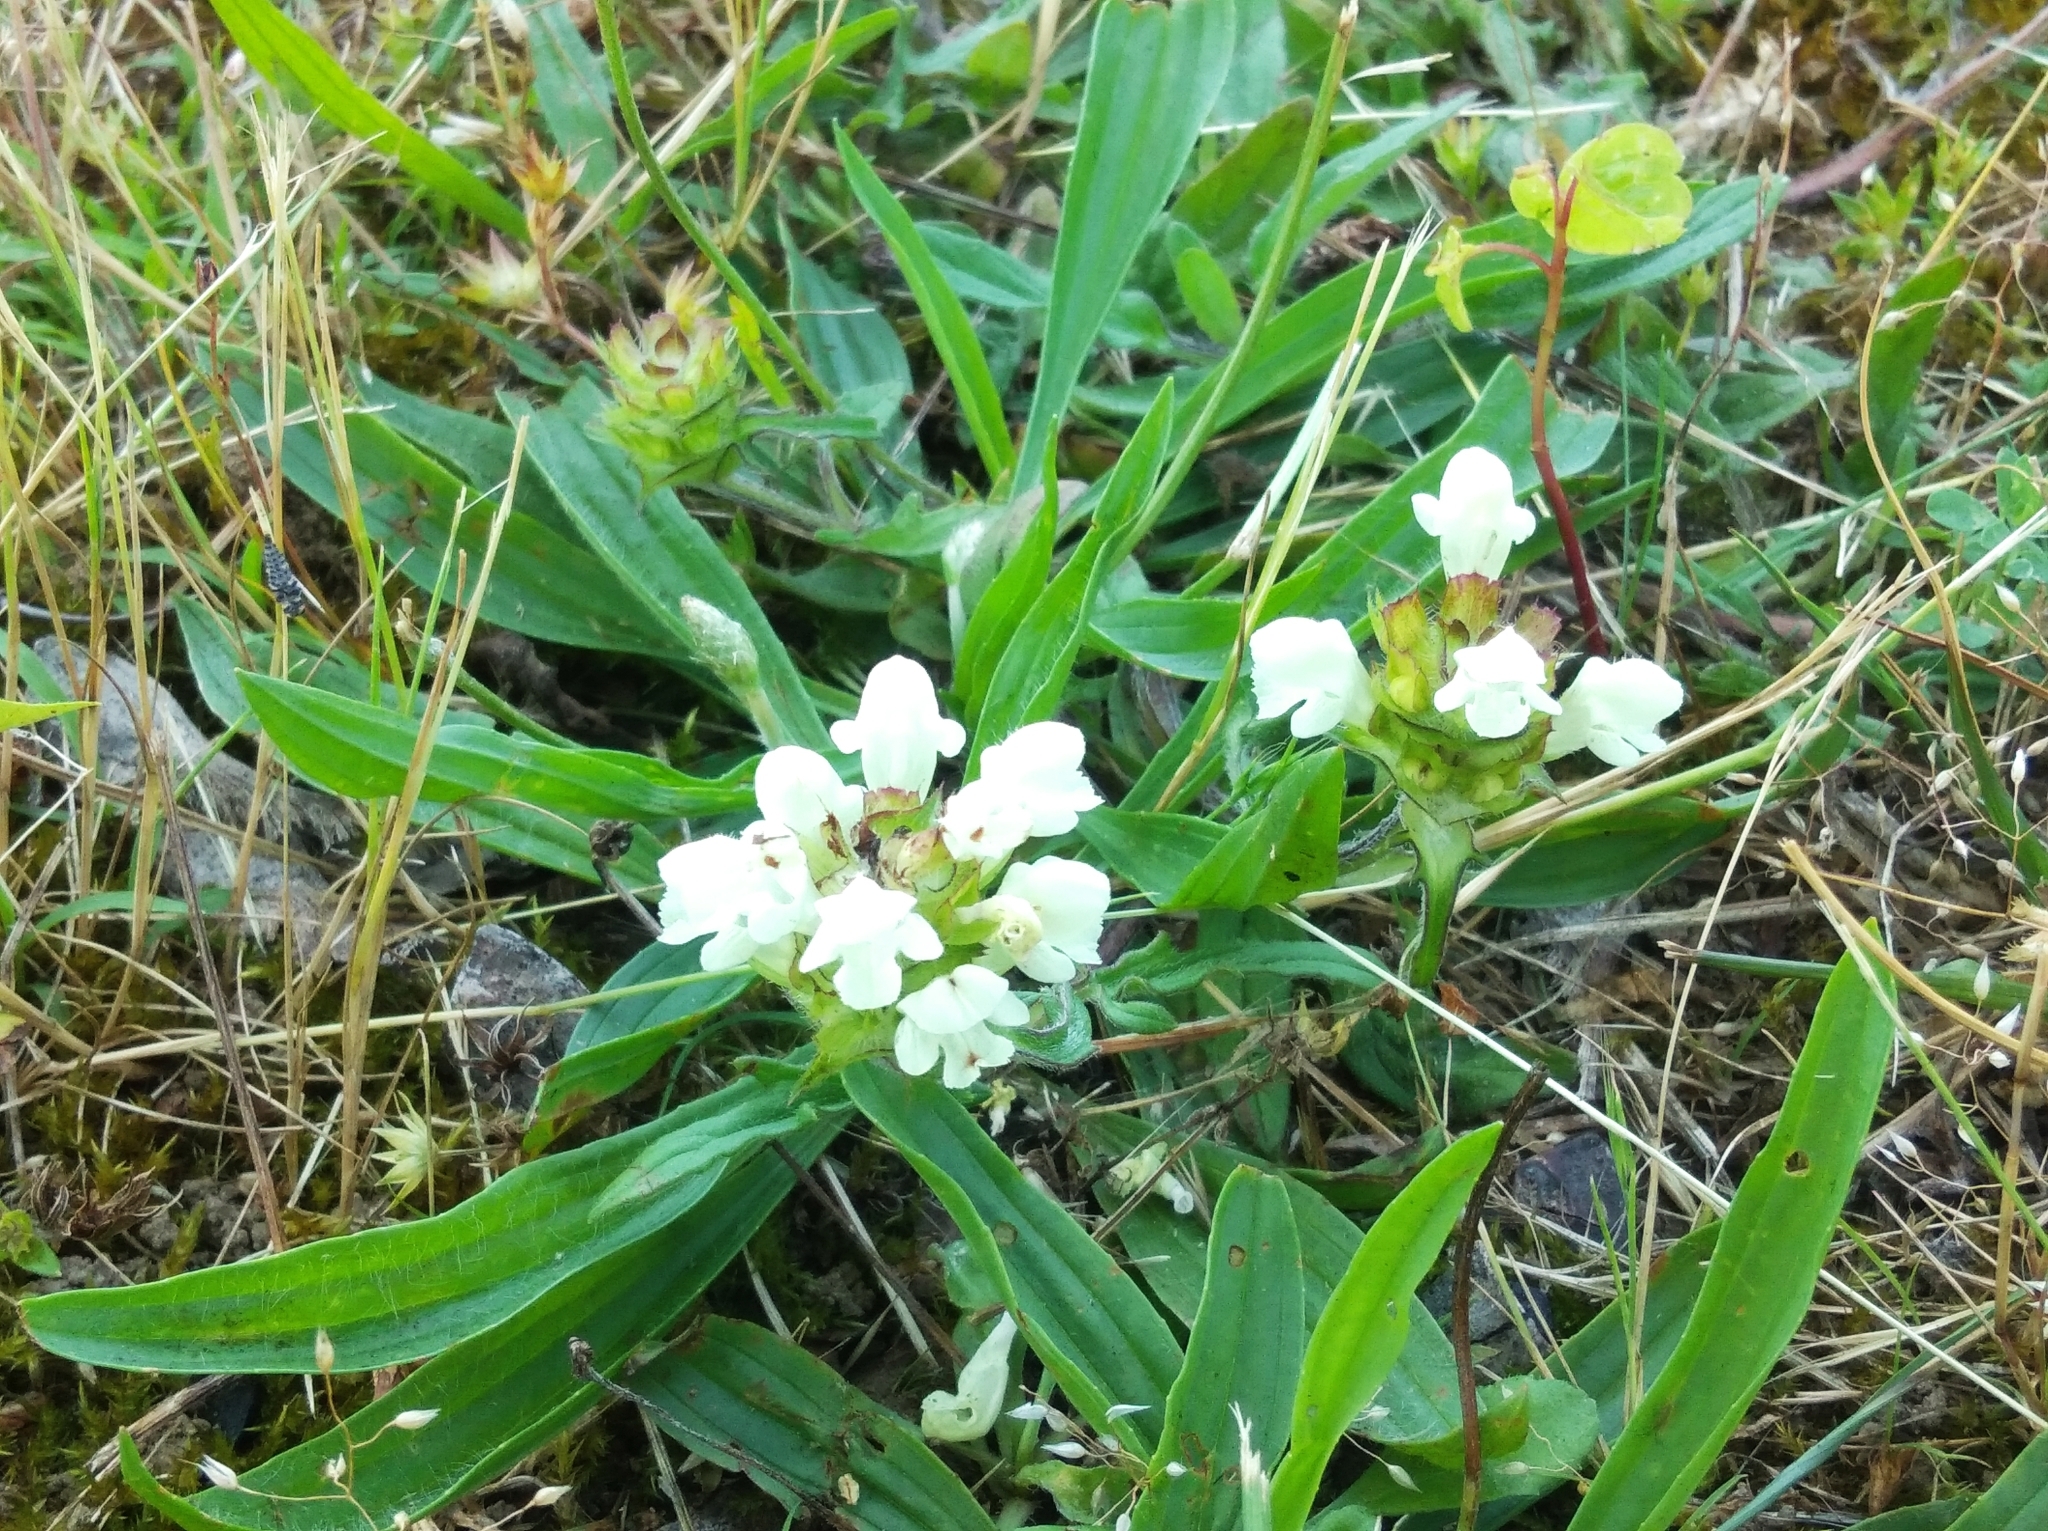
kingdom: Plantae
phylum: Tracheophyta
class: Magnoliopsida
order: Lamiales
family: Lamiaceae
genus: Prunella
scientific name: Prunella laciniata
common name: Cut-leaved selfheal
